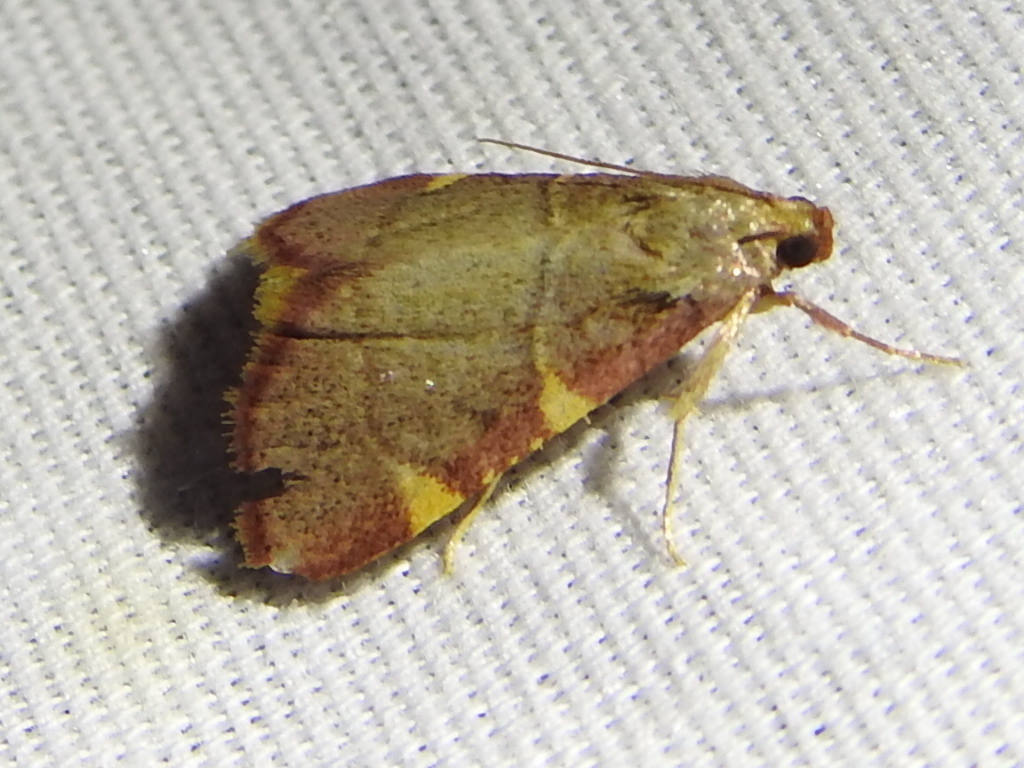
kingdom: Animalia
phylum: Arthropoda
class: Insecta
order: Lepidoptera
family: Pyralidae
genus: Hypsopygia
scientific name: Hypsopygia olinalis
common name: Yellow-fringed dolichomia moth
